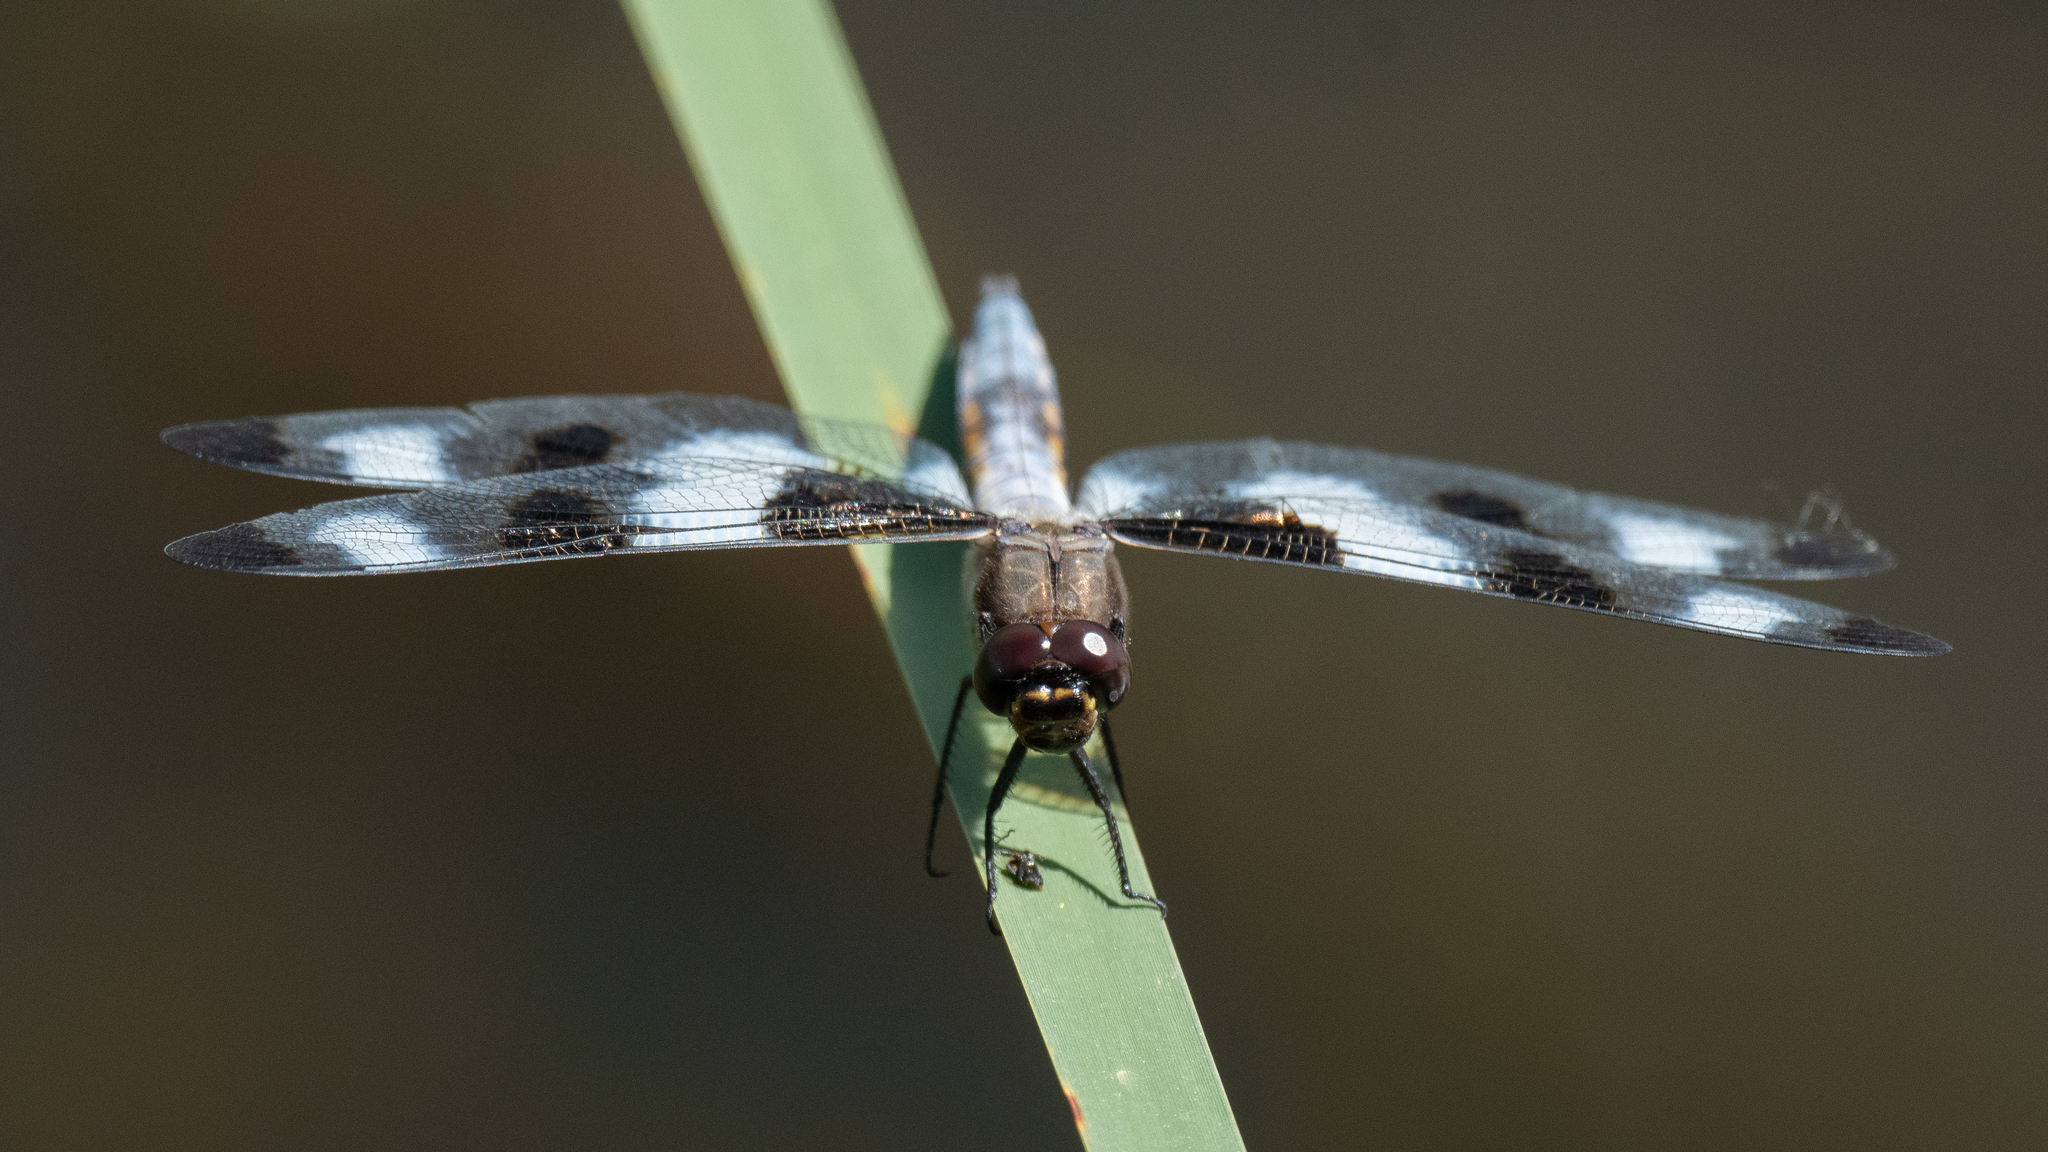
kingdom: Animalia
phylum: Arthropoda
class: Insecta
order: Odonata
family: Libellulidae
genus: Libellula
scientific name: Libellula pulchella
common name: Twelve-spotted skimmer
